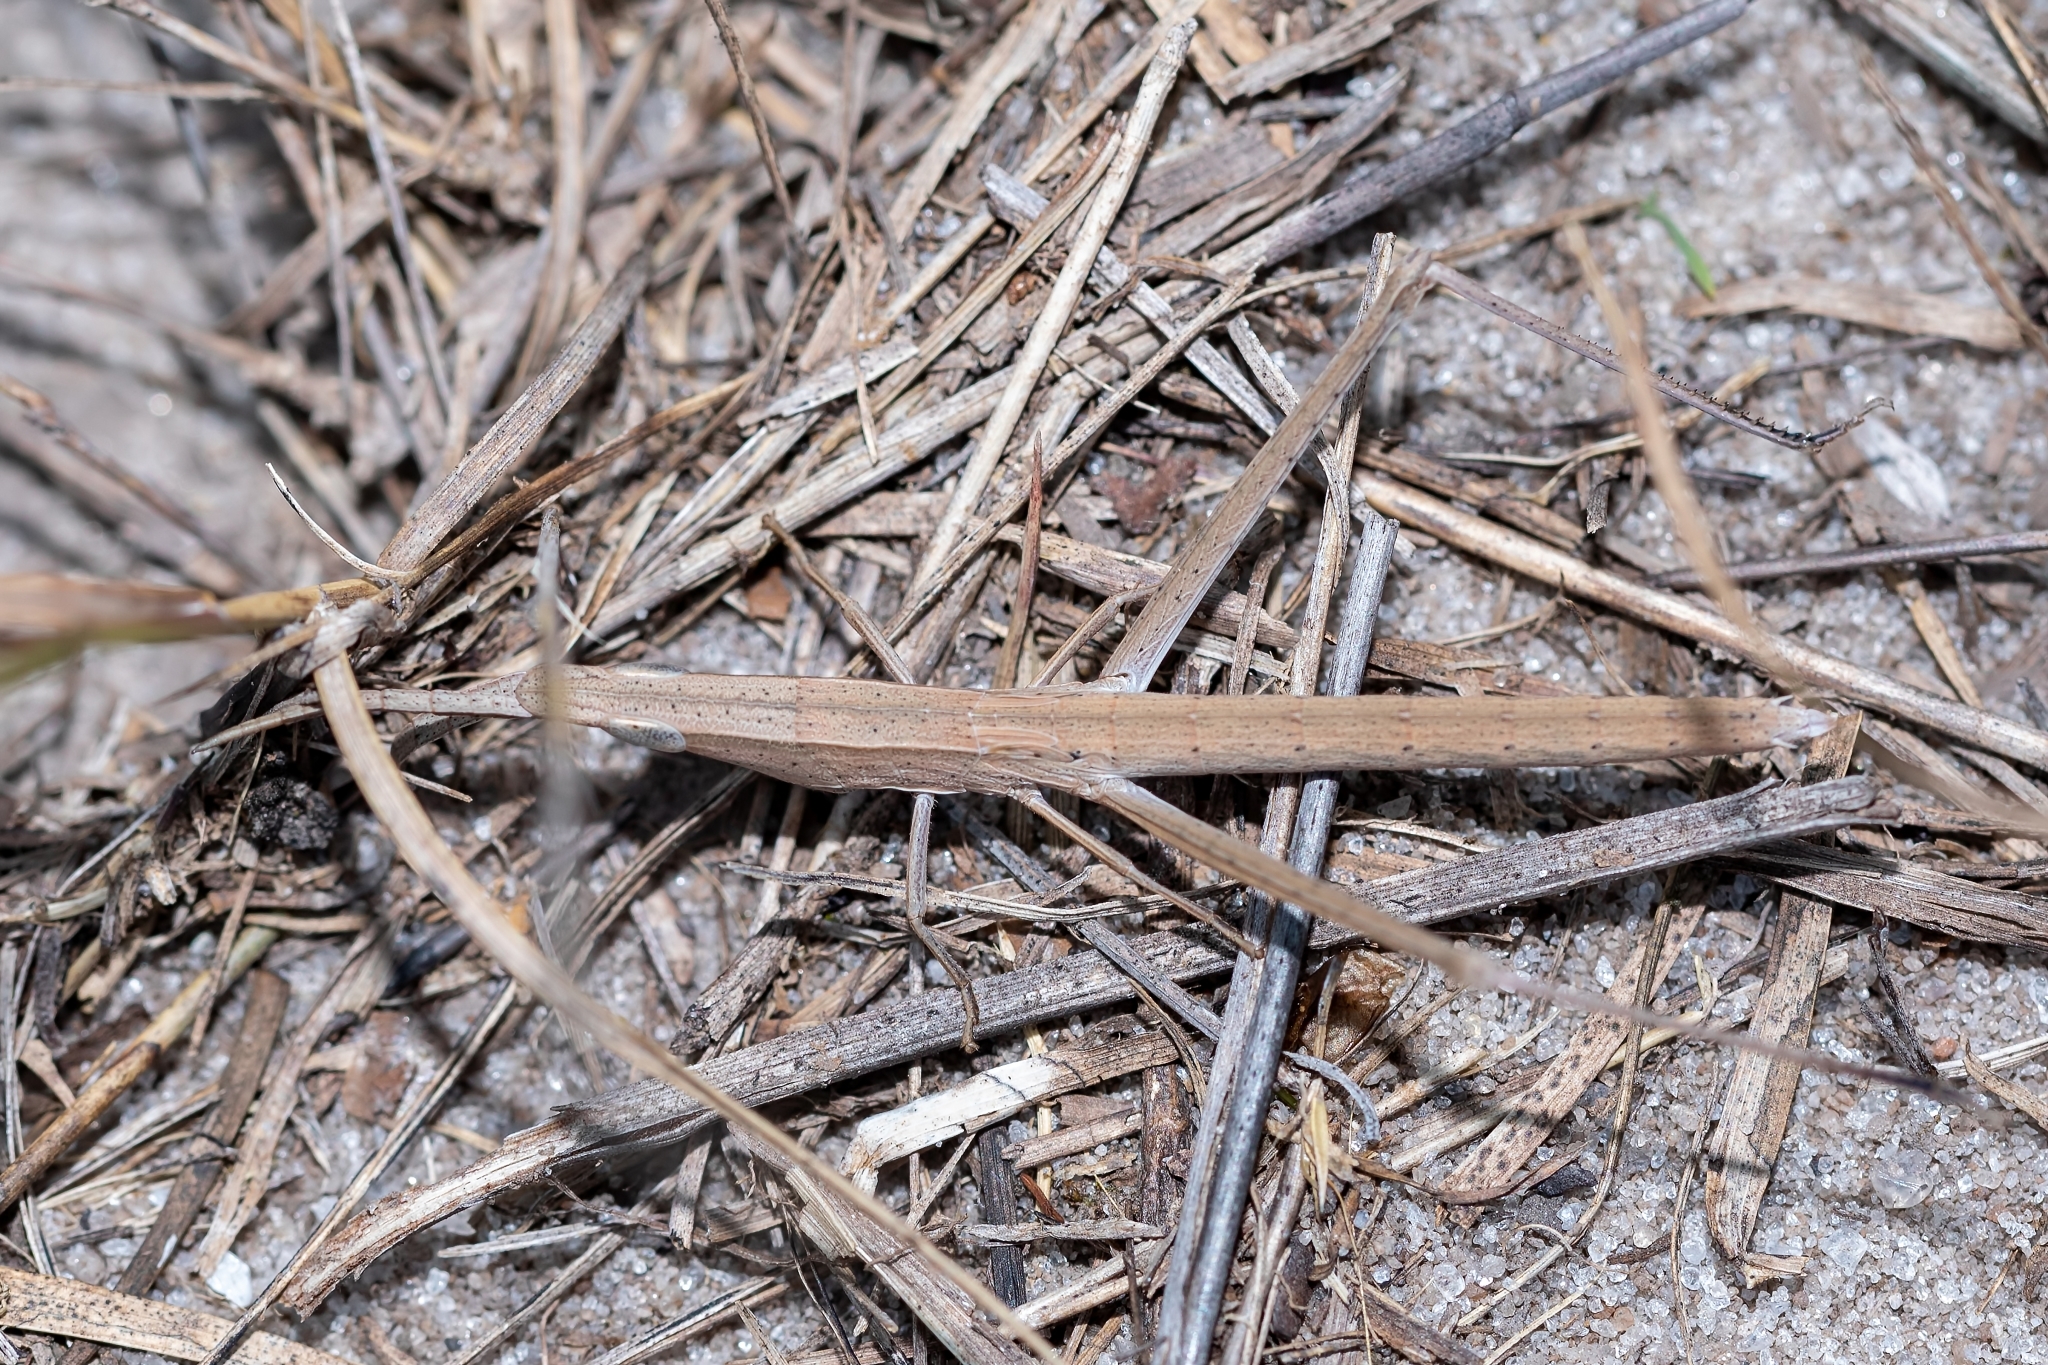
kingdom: Animalia
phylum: Arthropoda
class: Insecta
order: Orthoptera
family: Acrididae
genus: Achurum
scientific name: Achurum carinatum
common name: Long-headed toothpick grasshopper
